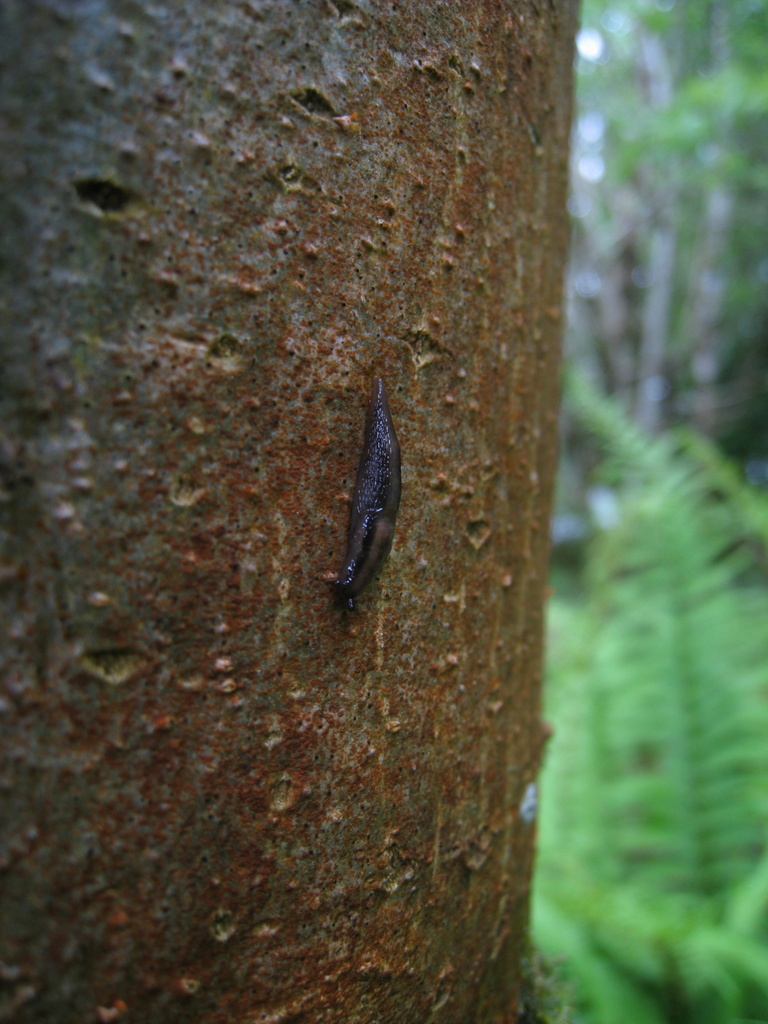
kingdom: Animalia
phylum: Mollusca
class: Gastropoda
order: Stylommatophora
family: Limacidae
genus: Lehmannia
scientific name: Lehmannia marginata
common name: Tree slug
